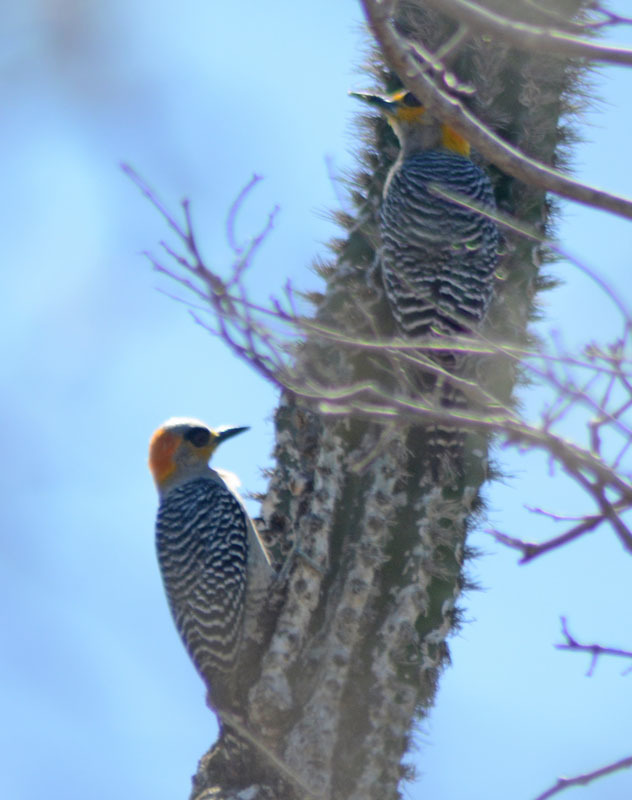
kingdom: Animalia
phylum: Chordata
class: Aves
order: Piciformes
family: Picidae
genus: Melanerpes
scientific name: Melanerpes chrysogenys
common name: Golden-cheeked woodpecker
